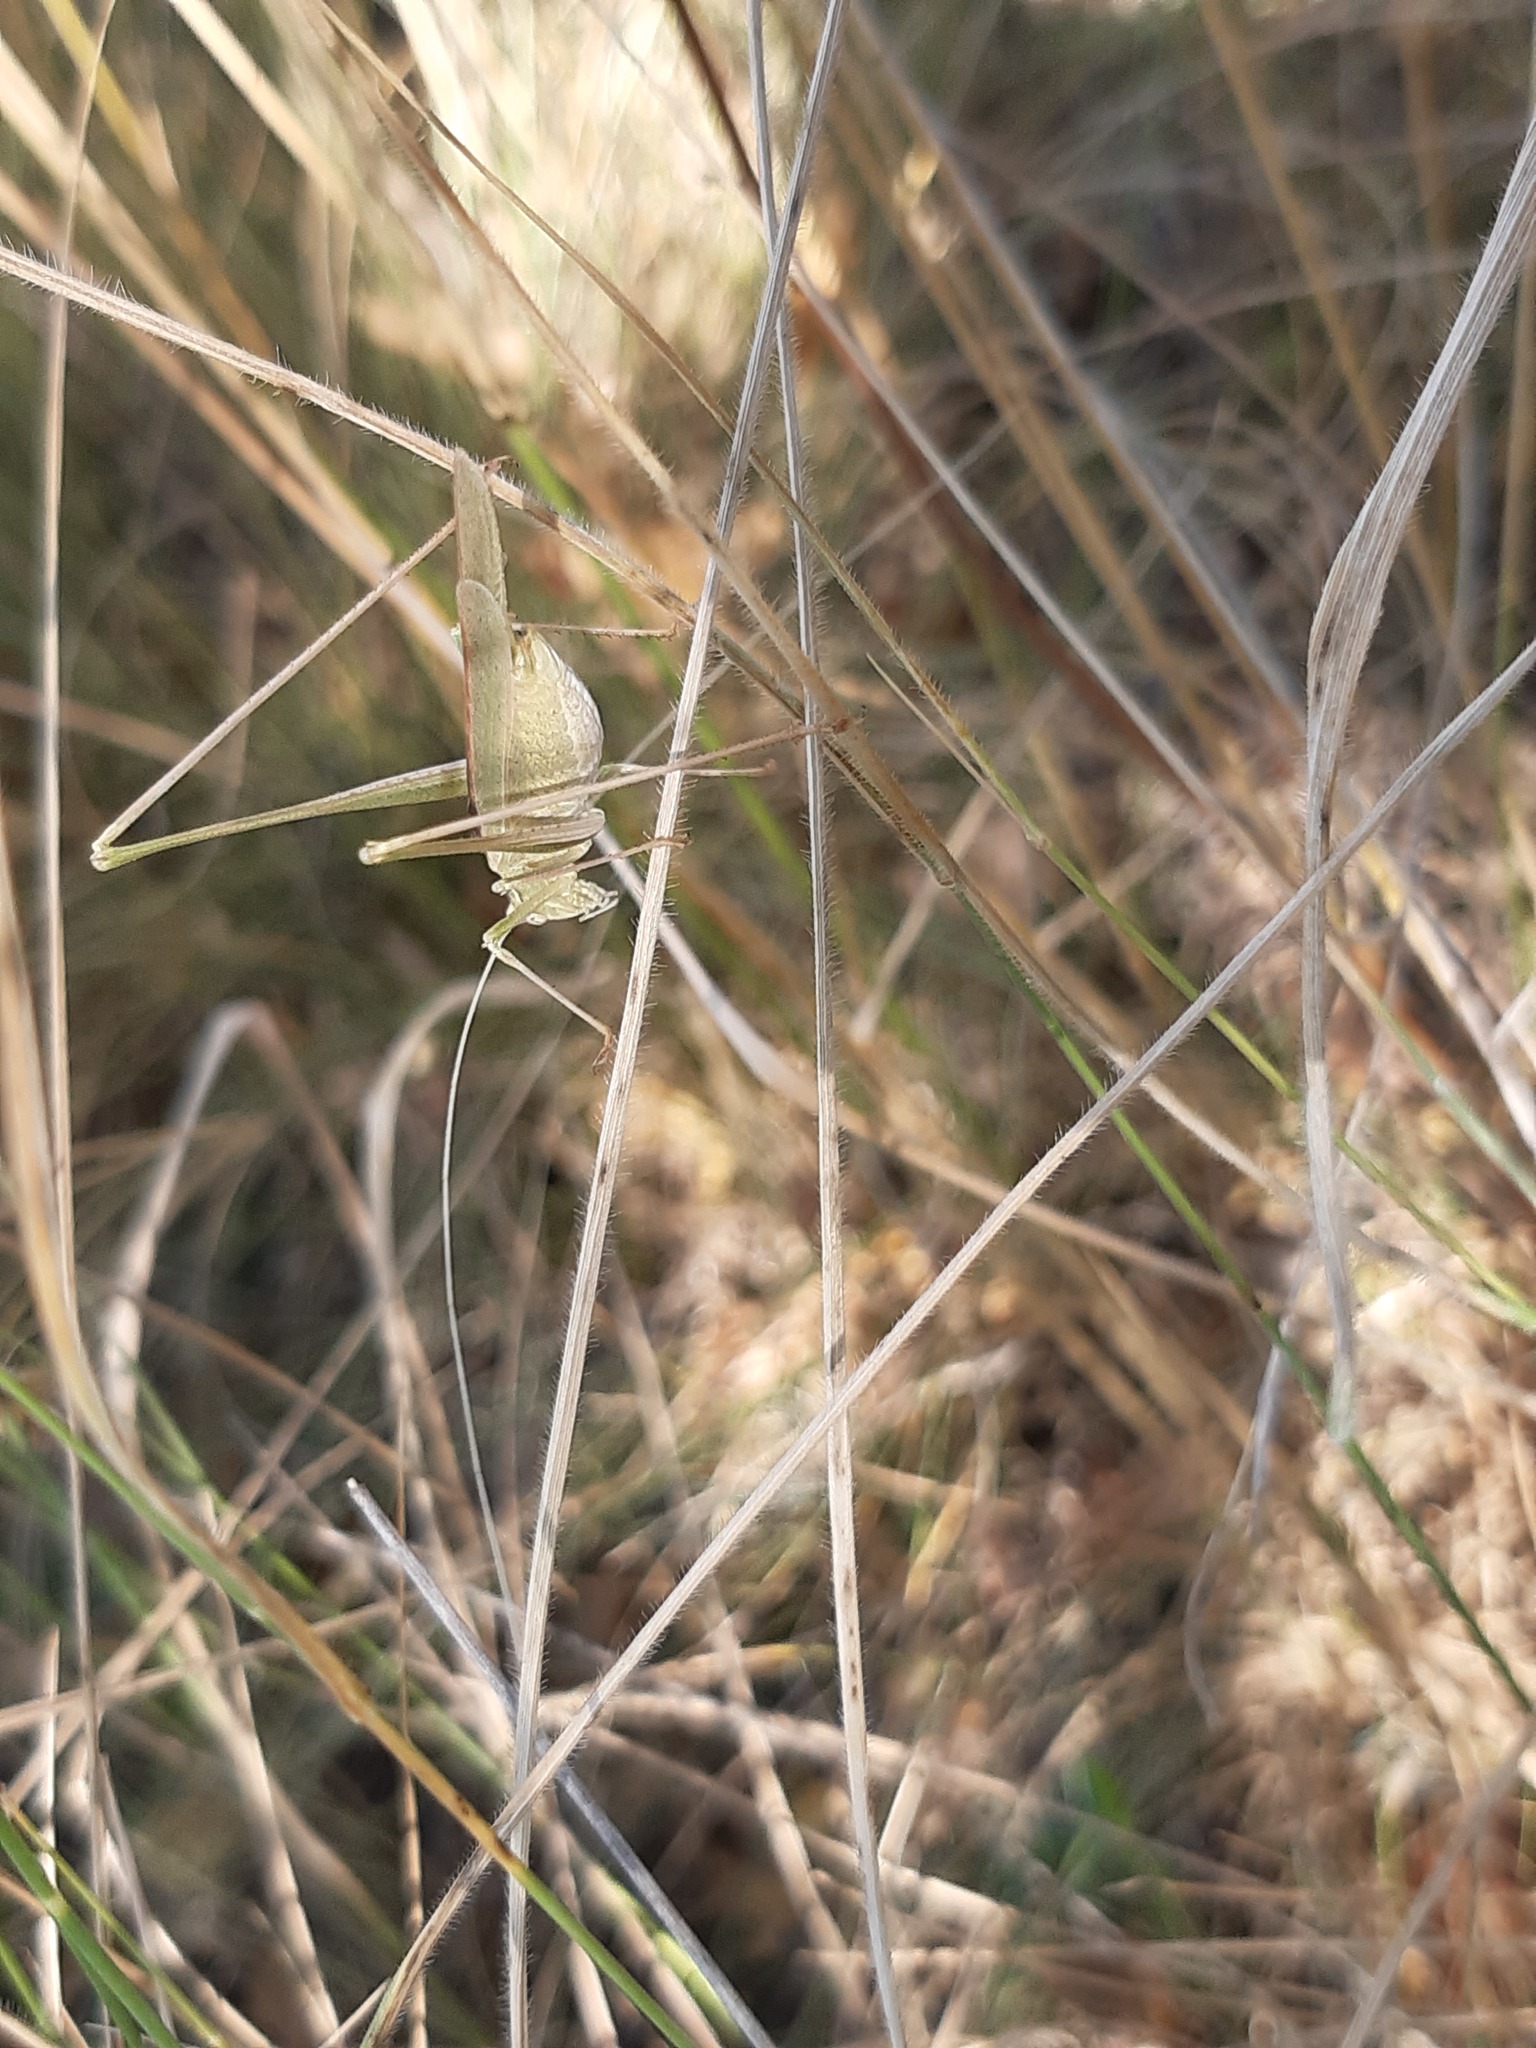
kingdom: Animalia
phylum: Arthropoda
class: Insecta
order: Orthoptera
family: Tettigoniidae
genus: Tylopsis
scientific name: Tylopsis lilifolia
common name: Lily bush-cricket
